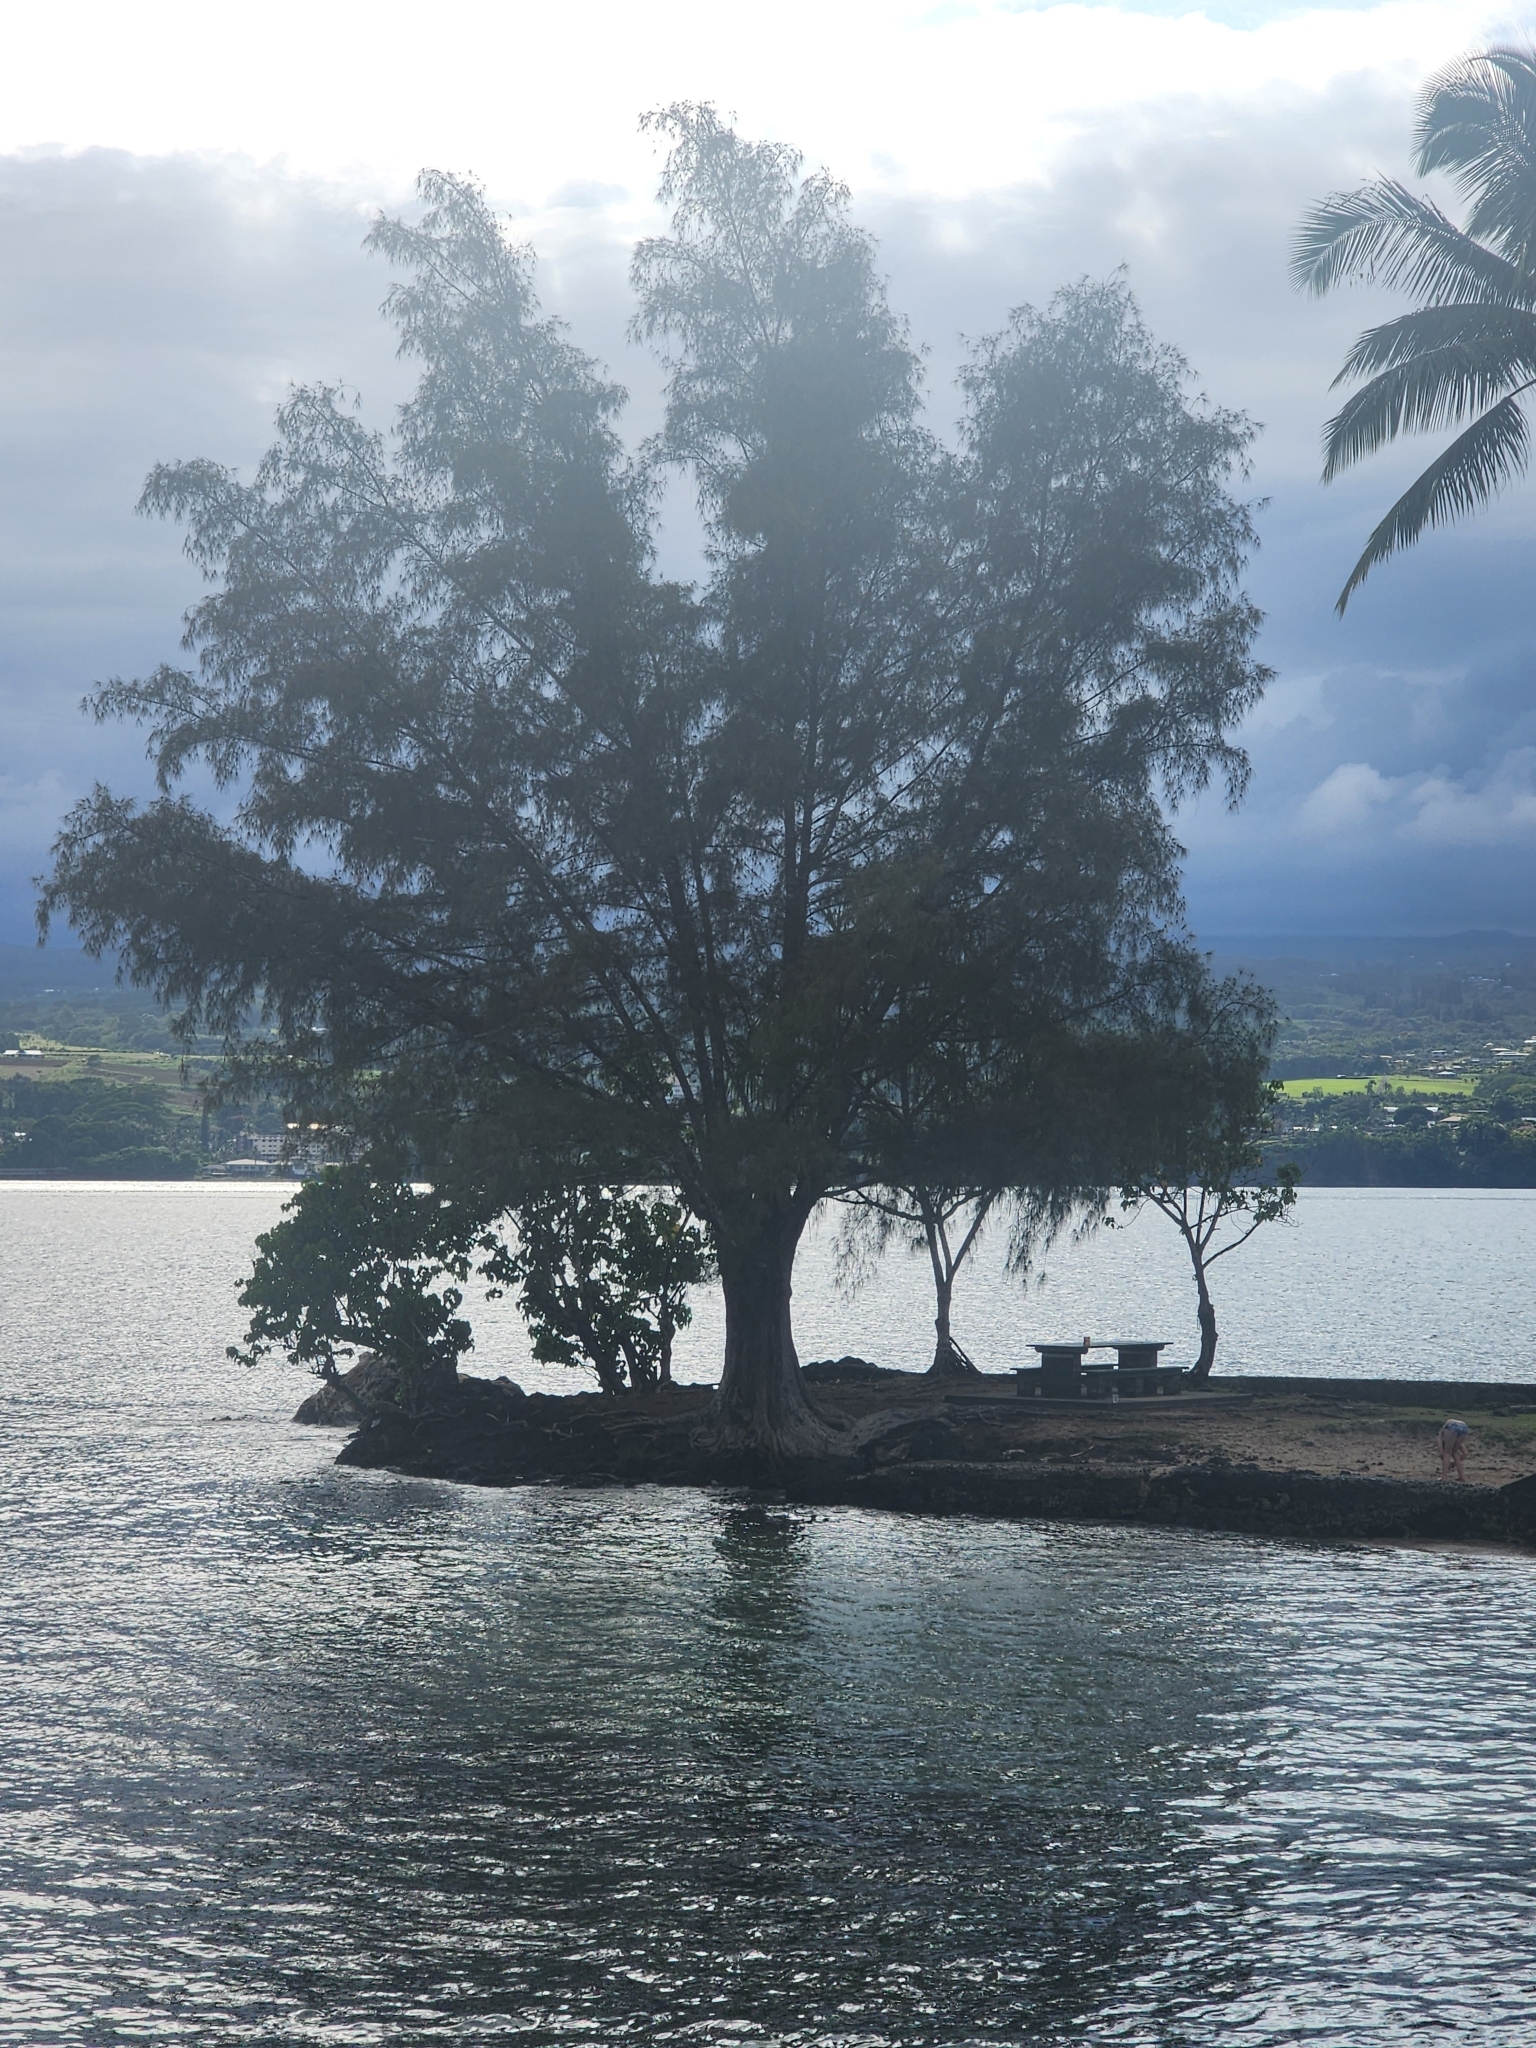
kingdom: Plantae
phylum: Tracheophyta
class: Magnoliopsida
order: Fagales
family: Casuarinaceae
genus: Casuarina
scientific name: Casuarina equisetifolia
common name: Beach sheoak
